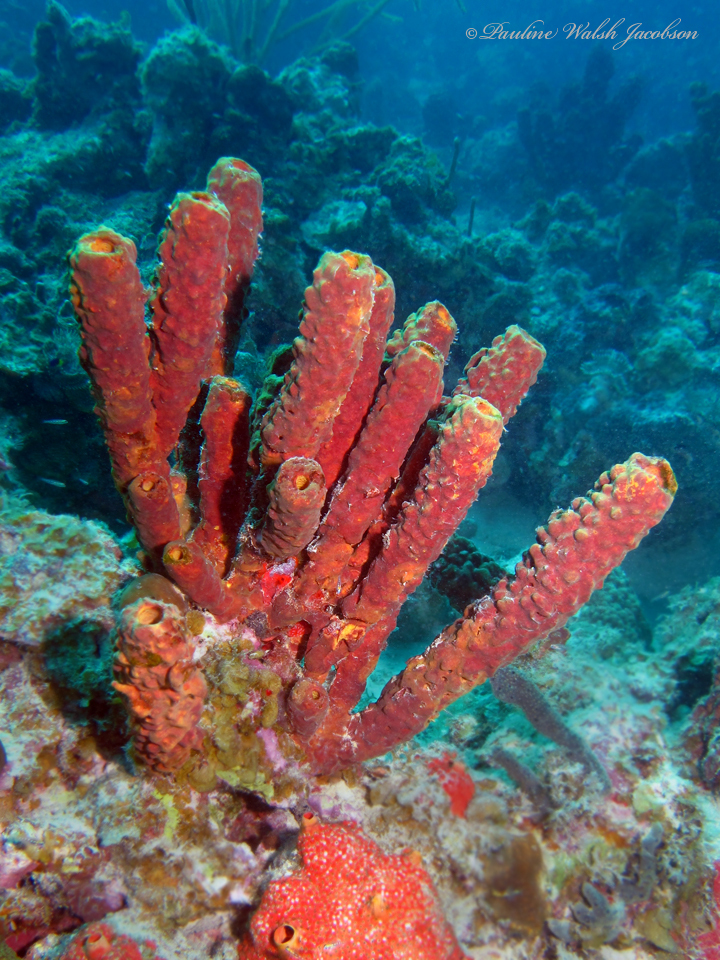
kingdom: Animalia
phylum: Porifera
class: Demospongiae
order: Verongiida
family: Aplysinidae
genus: Aplysina
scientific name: Aplysina archeri
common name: Stove-pipe sponge
